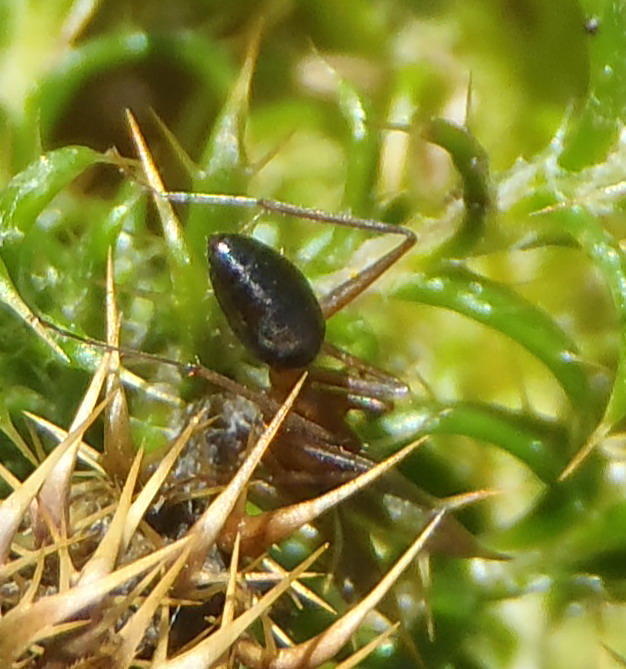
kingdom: Animalia
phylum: Arthropoda
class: Insecta
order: Hymenoptera
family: Formicidae
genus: Camponotus
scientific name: Camponotus knysnae
